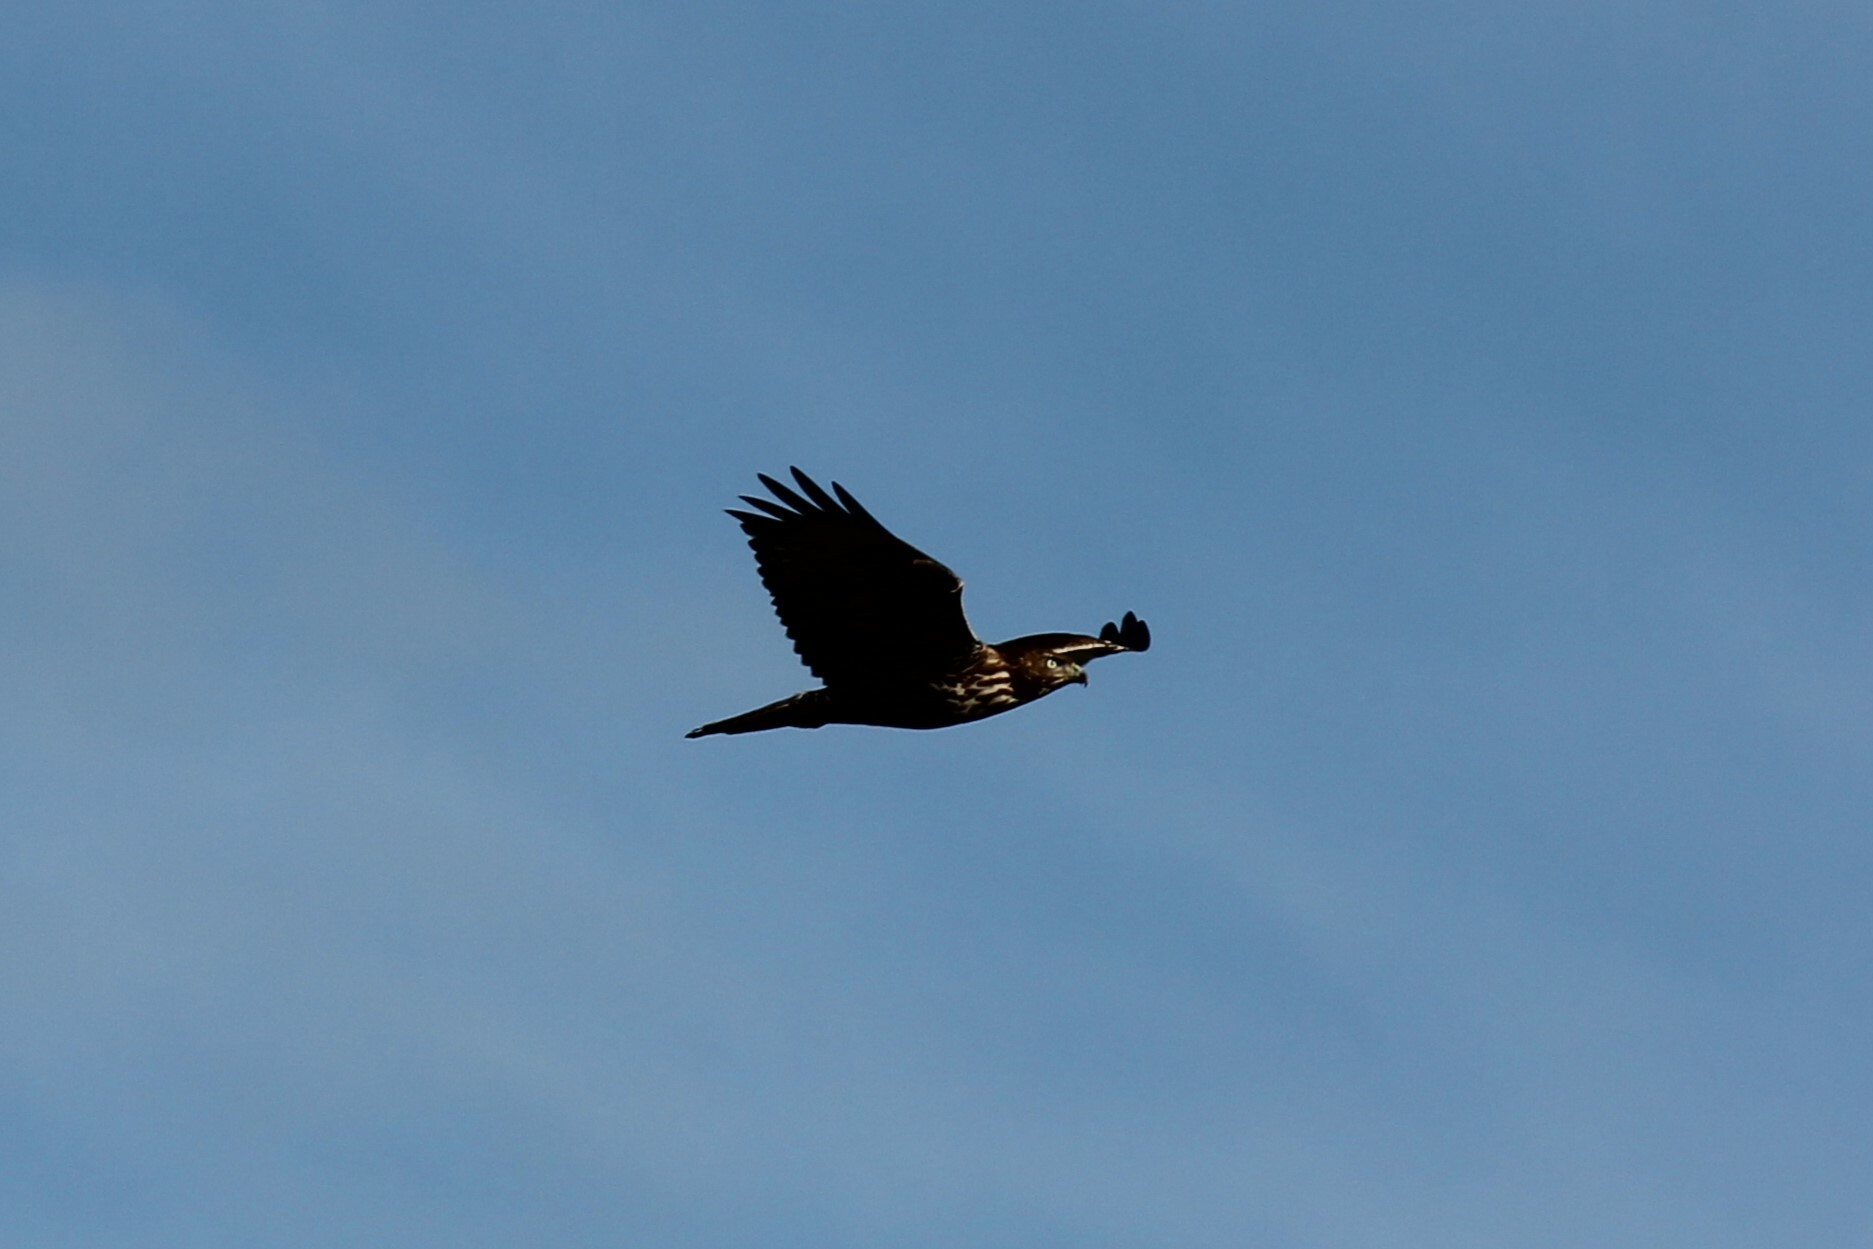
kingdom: Animalia
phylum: Chordata
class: Aves
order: Accipitriformes
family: Accipitridae
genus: Buteo
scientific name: Buteo jamaicensis
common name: Red-tailed hawk
